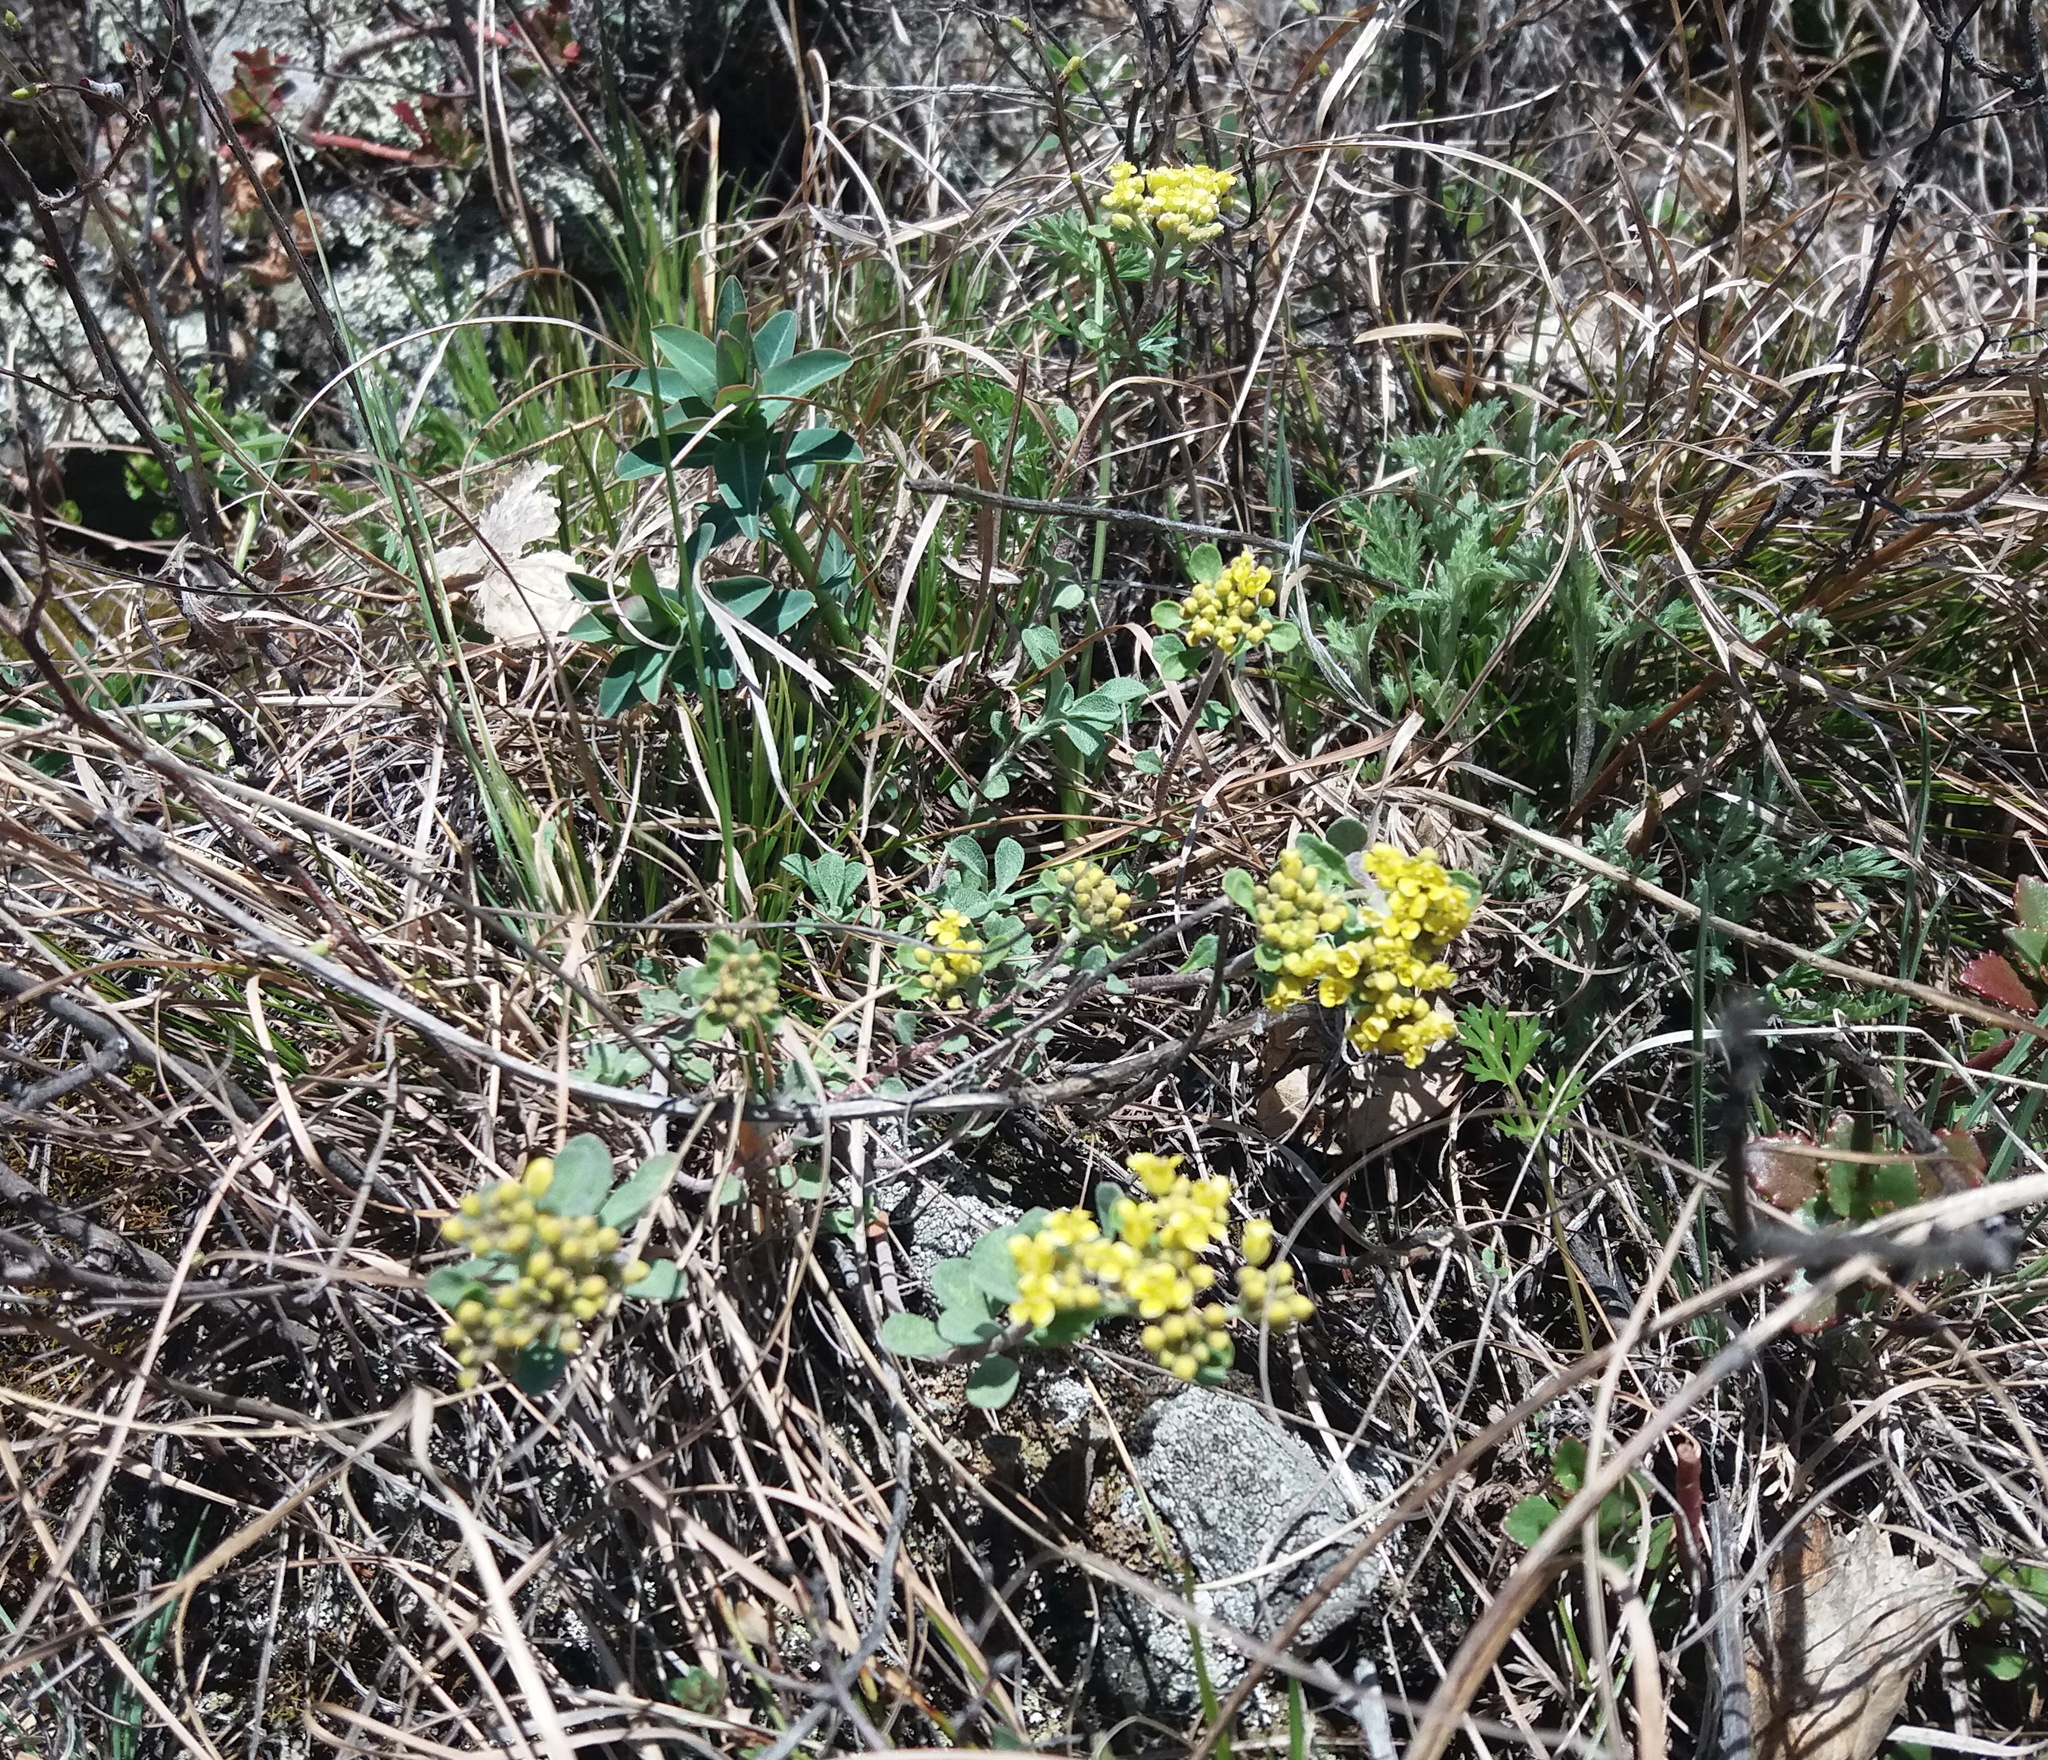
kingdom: Plantae
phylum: Tracheophyta
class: Magnoliopsida
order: Brassicales
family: Brassicaceae
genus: Odontarrhena
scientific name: Odontarrhena obovata
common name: American alyssum
